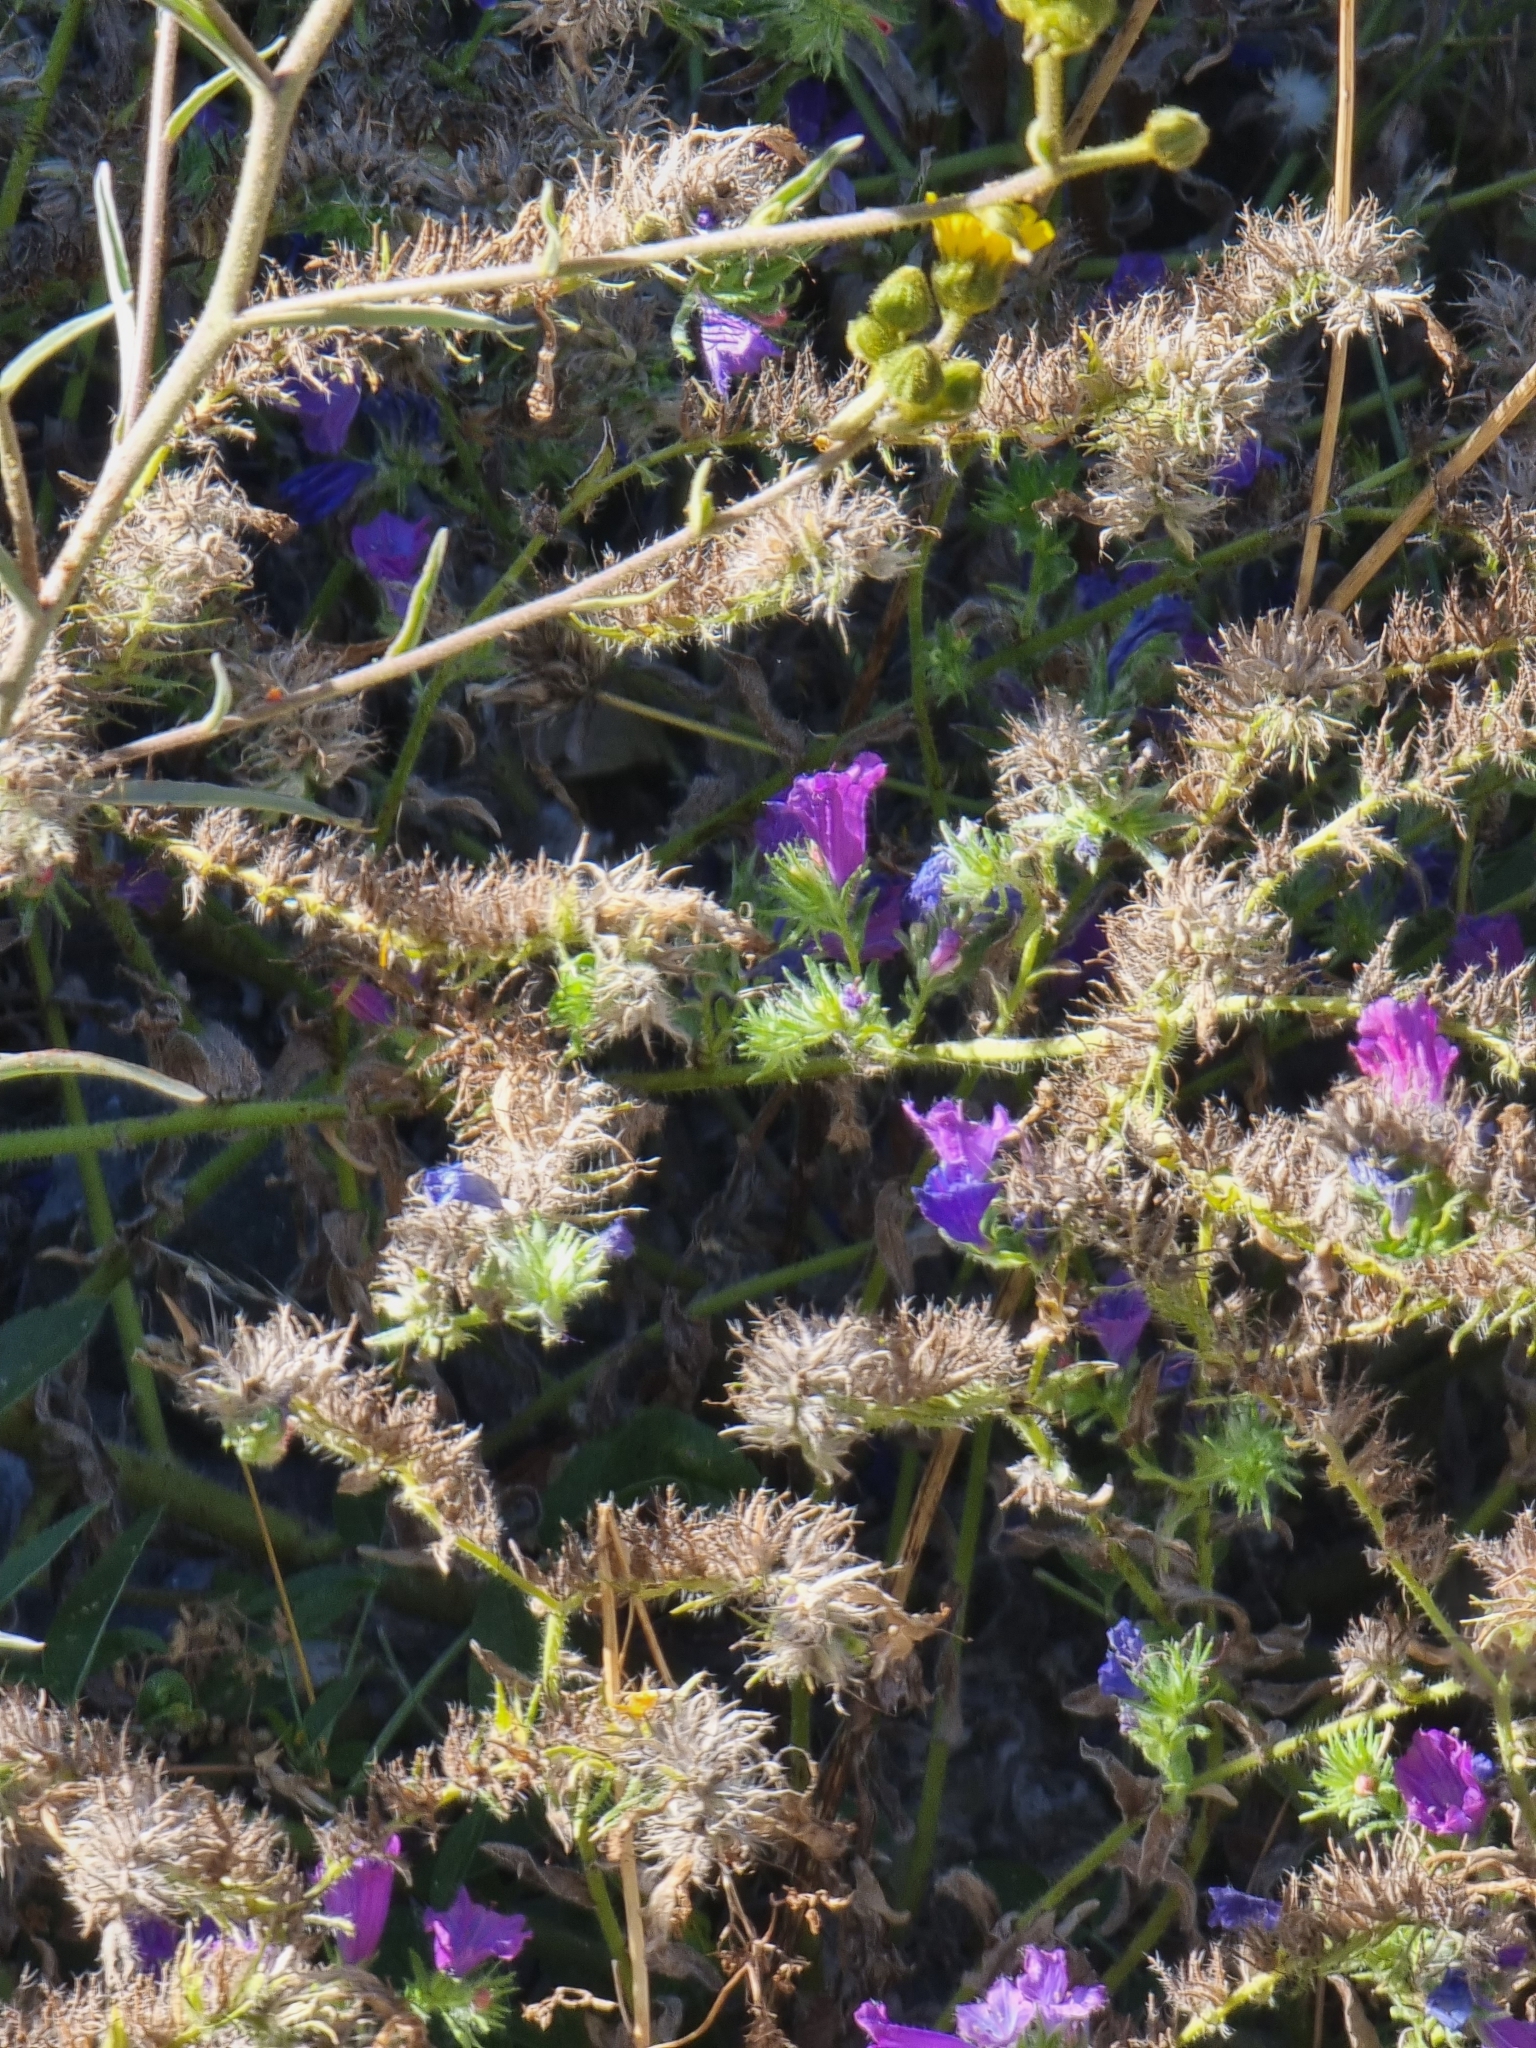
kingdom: Plantae
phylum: Tracheophyta
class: Magnoliopsida
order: Boraginales
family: Boraginaceae
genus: Echium
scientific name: Echium plantagineum
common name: Purple viper's-bugloss
